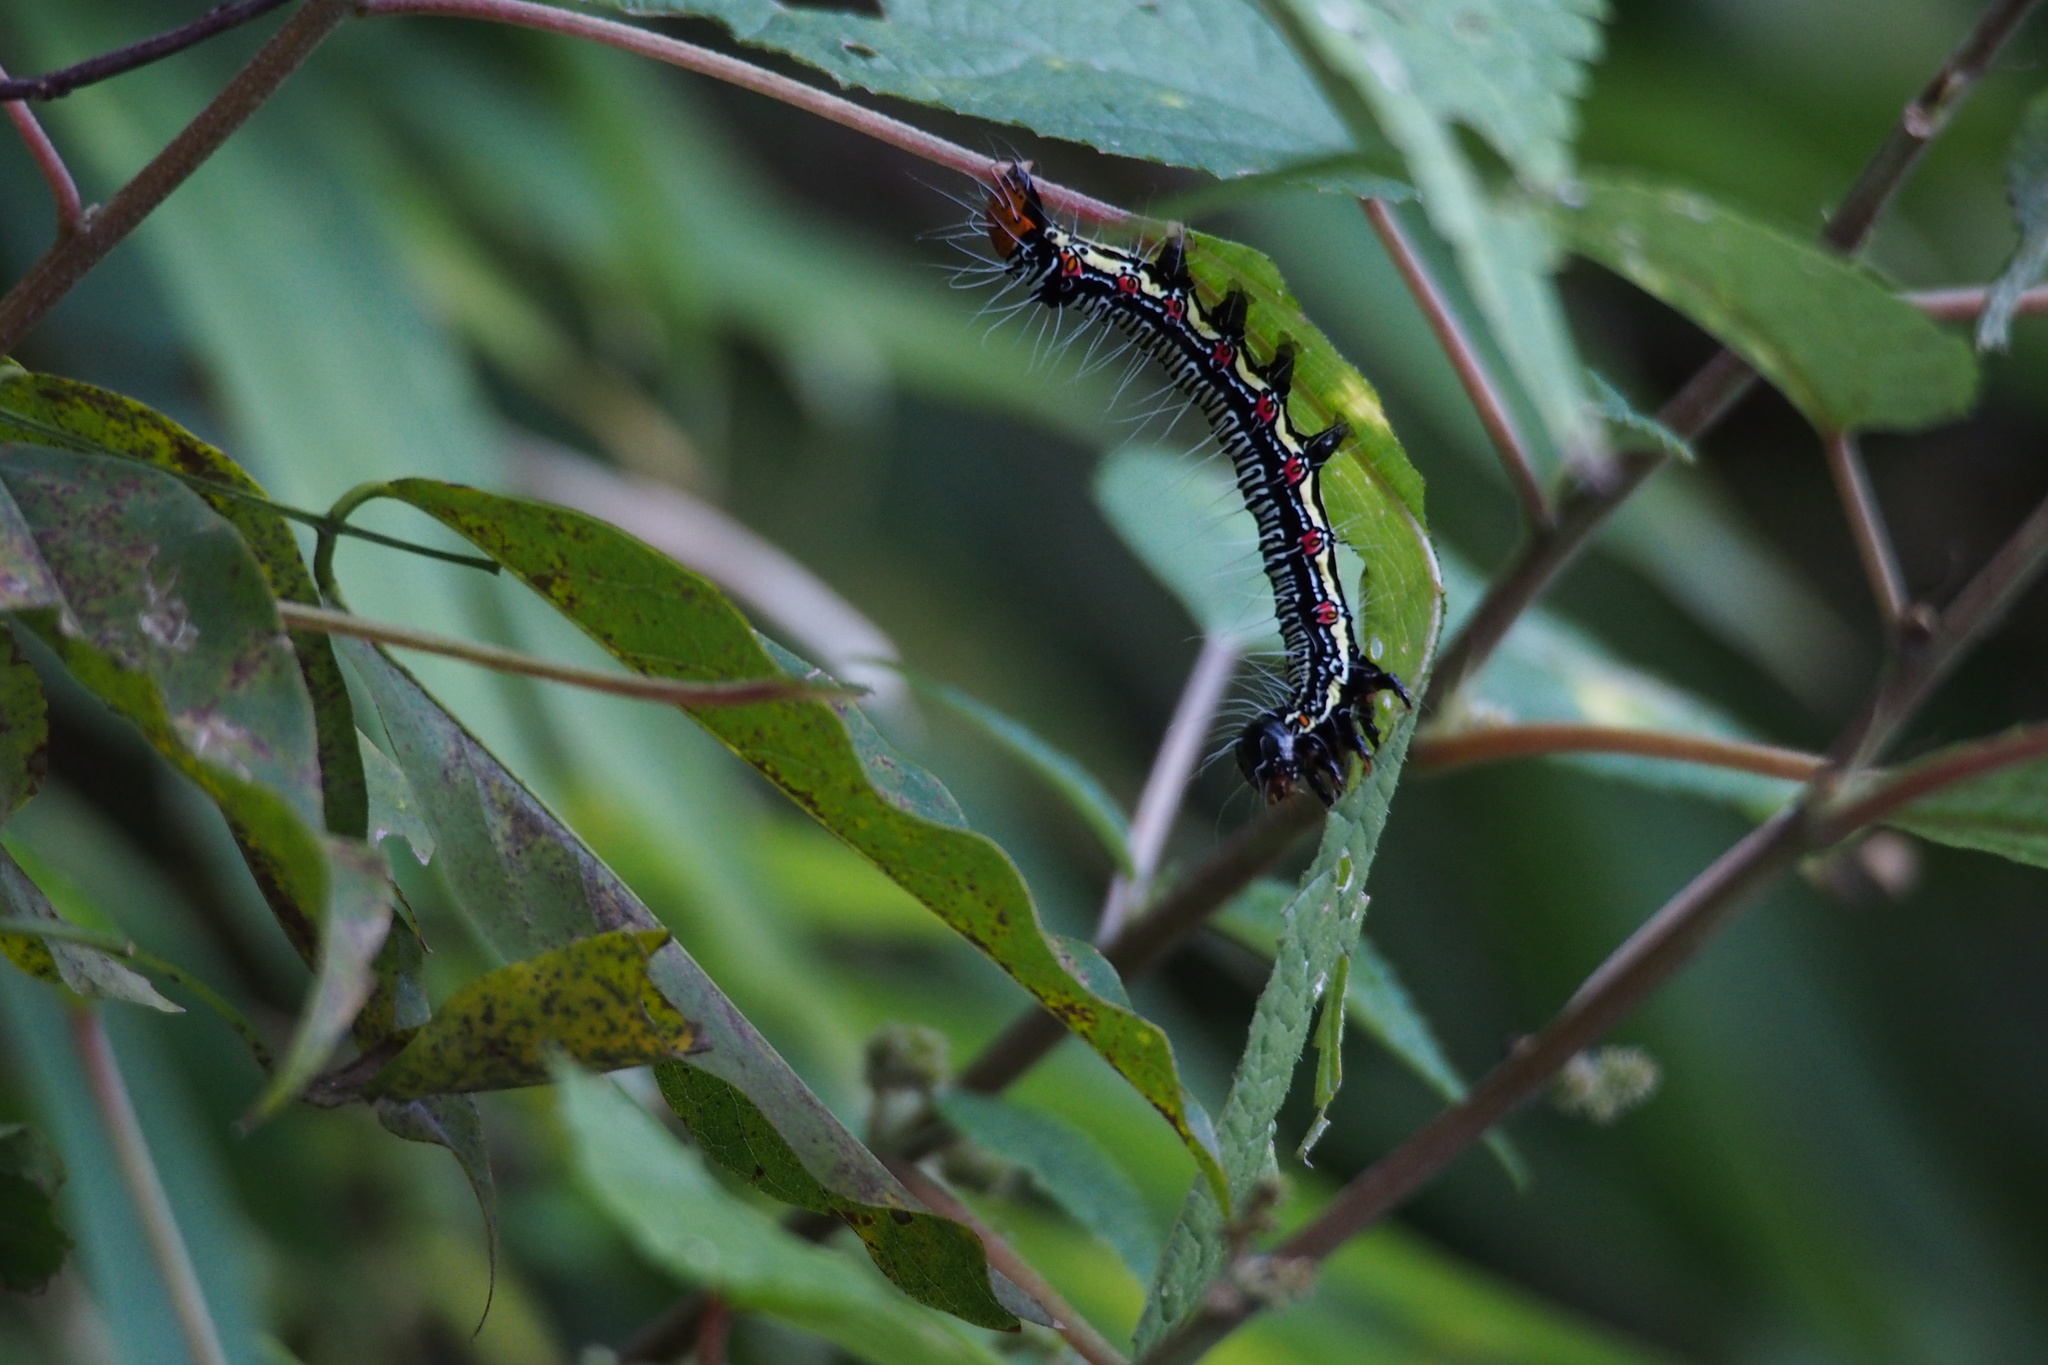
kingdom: Animalia
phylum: Arthropoda
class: Insecta
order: Lepidoptera
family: Erebidae
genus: Arcte
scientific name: Arcte coerula
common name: Ramie moth
